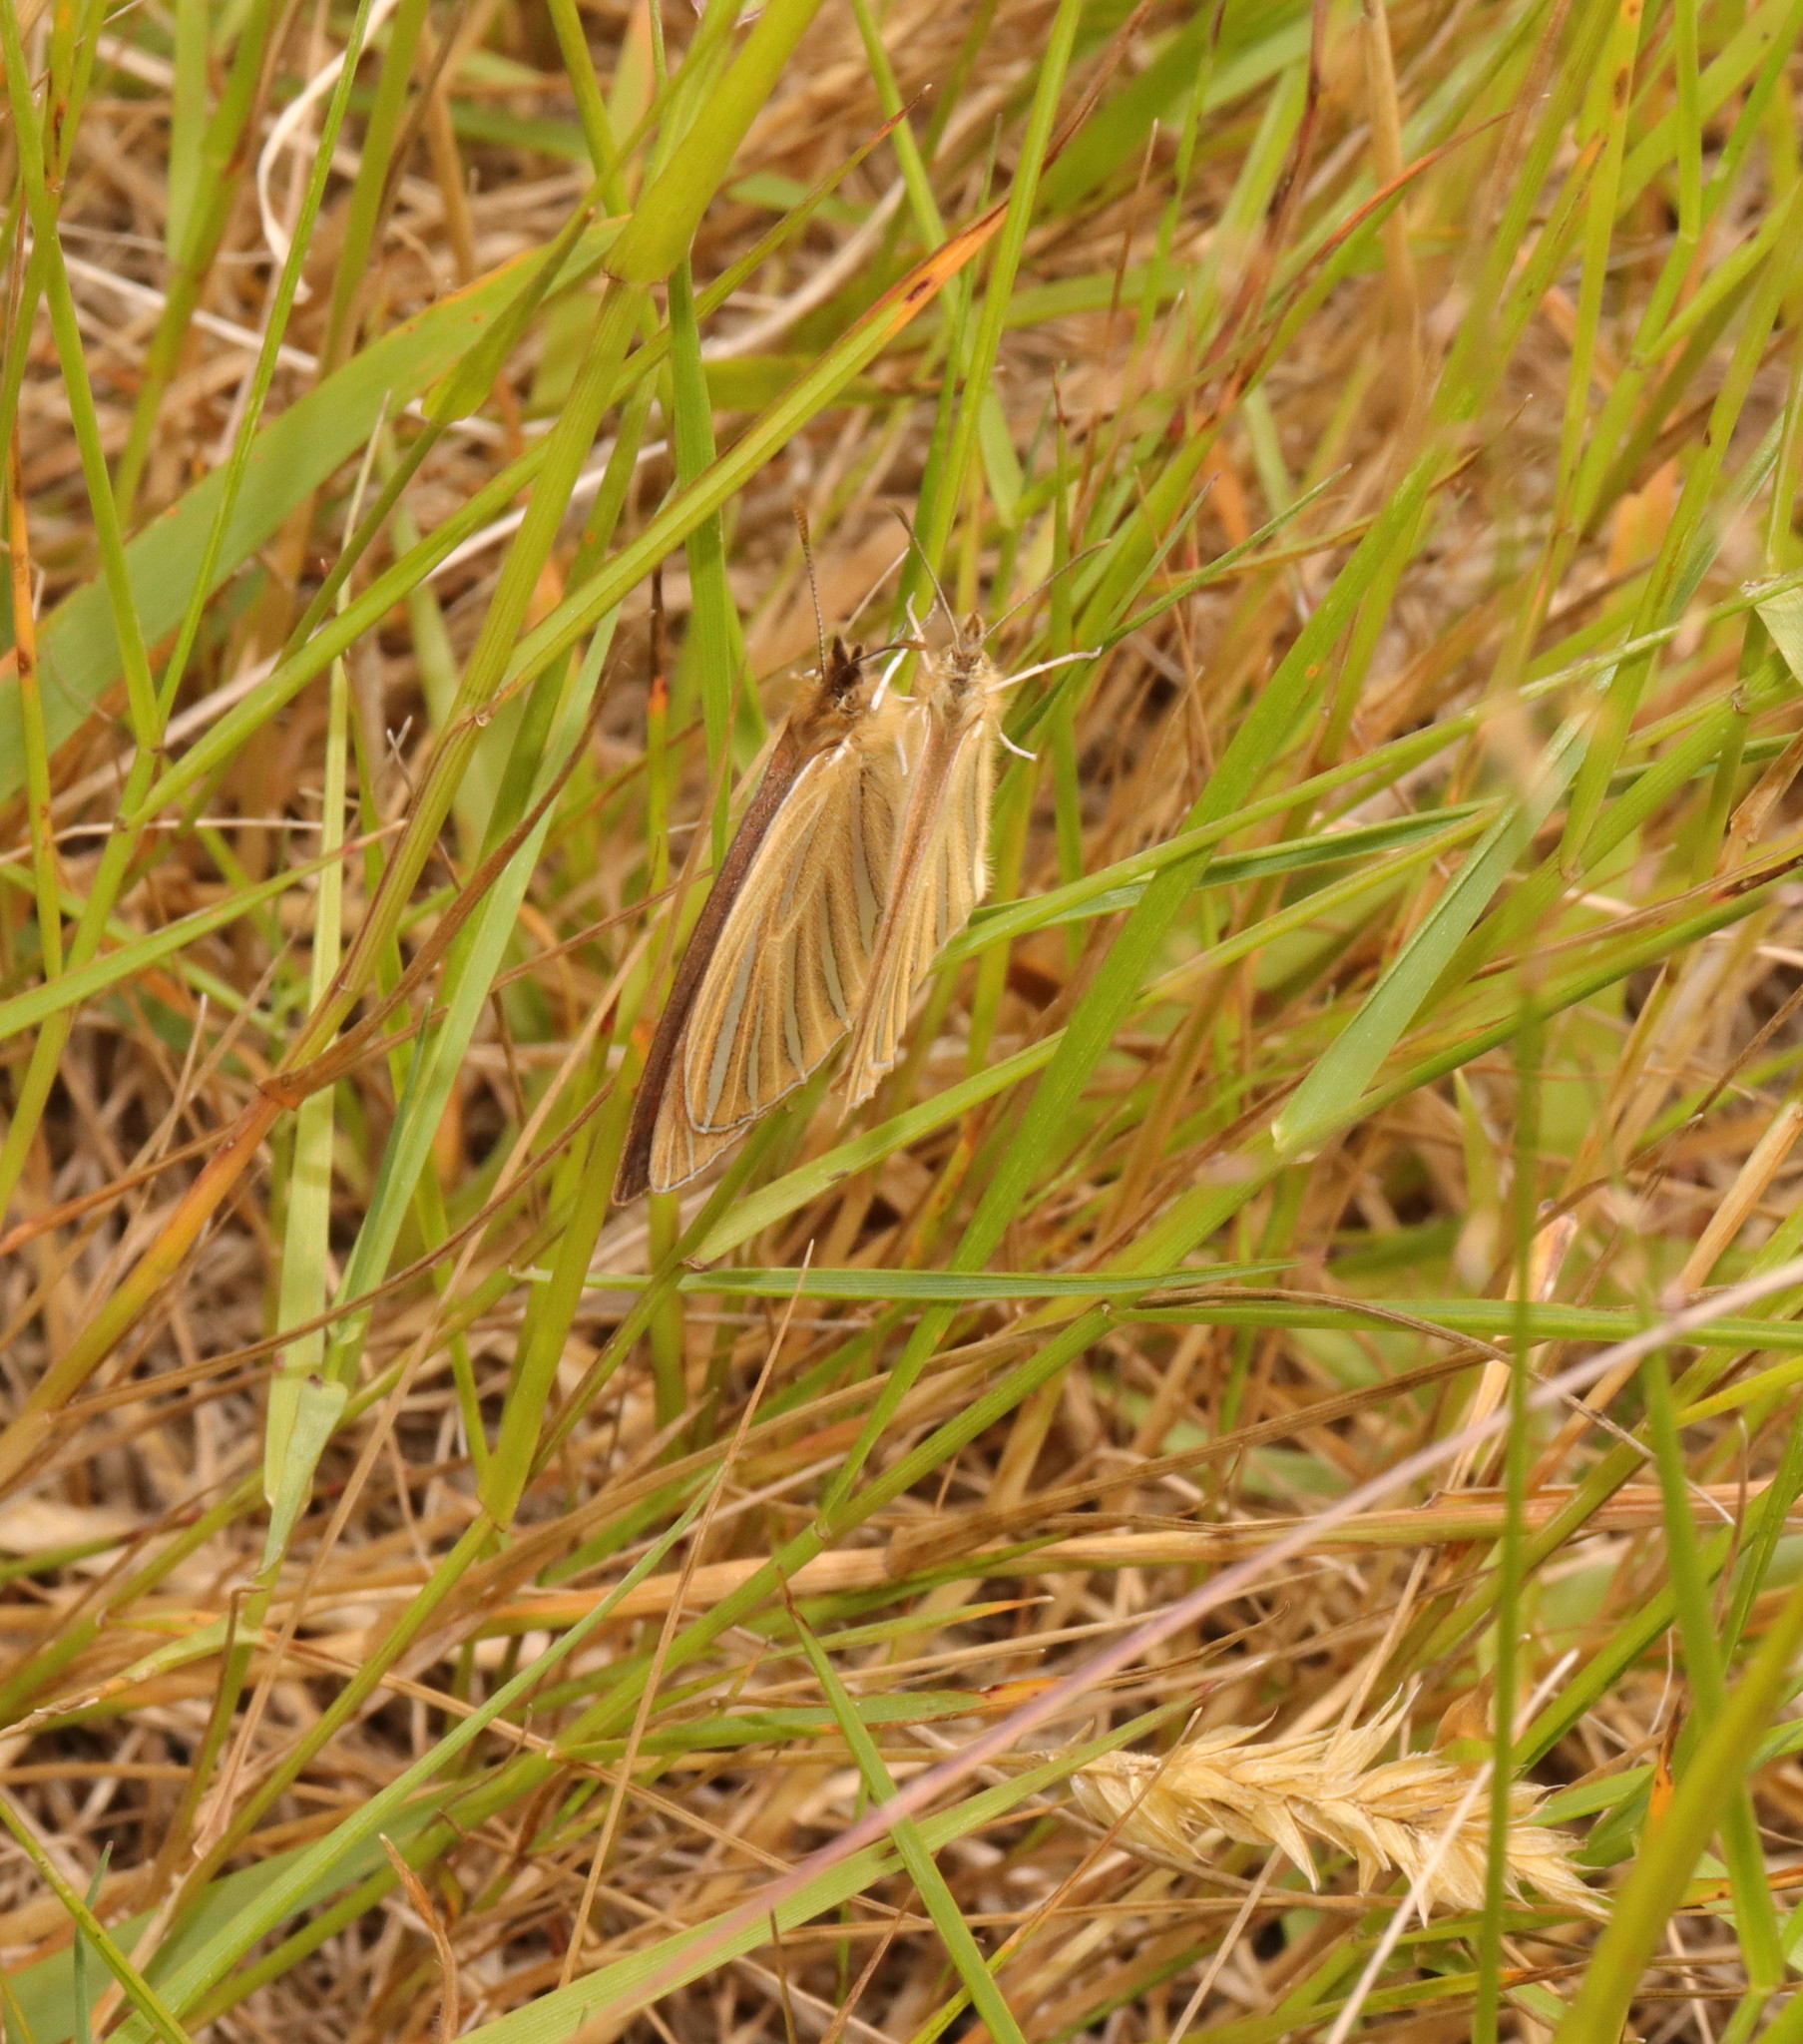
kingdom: Animalia
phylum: Arthropoda
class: Insecta
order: Lepidoptera
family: Nymphalidae
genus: Argyrophenga
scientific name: Argyrophenga antipodum
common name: Common tussock butterfly
